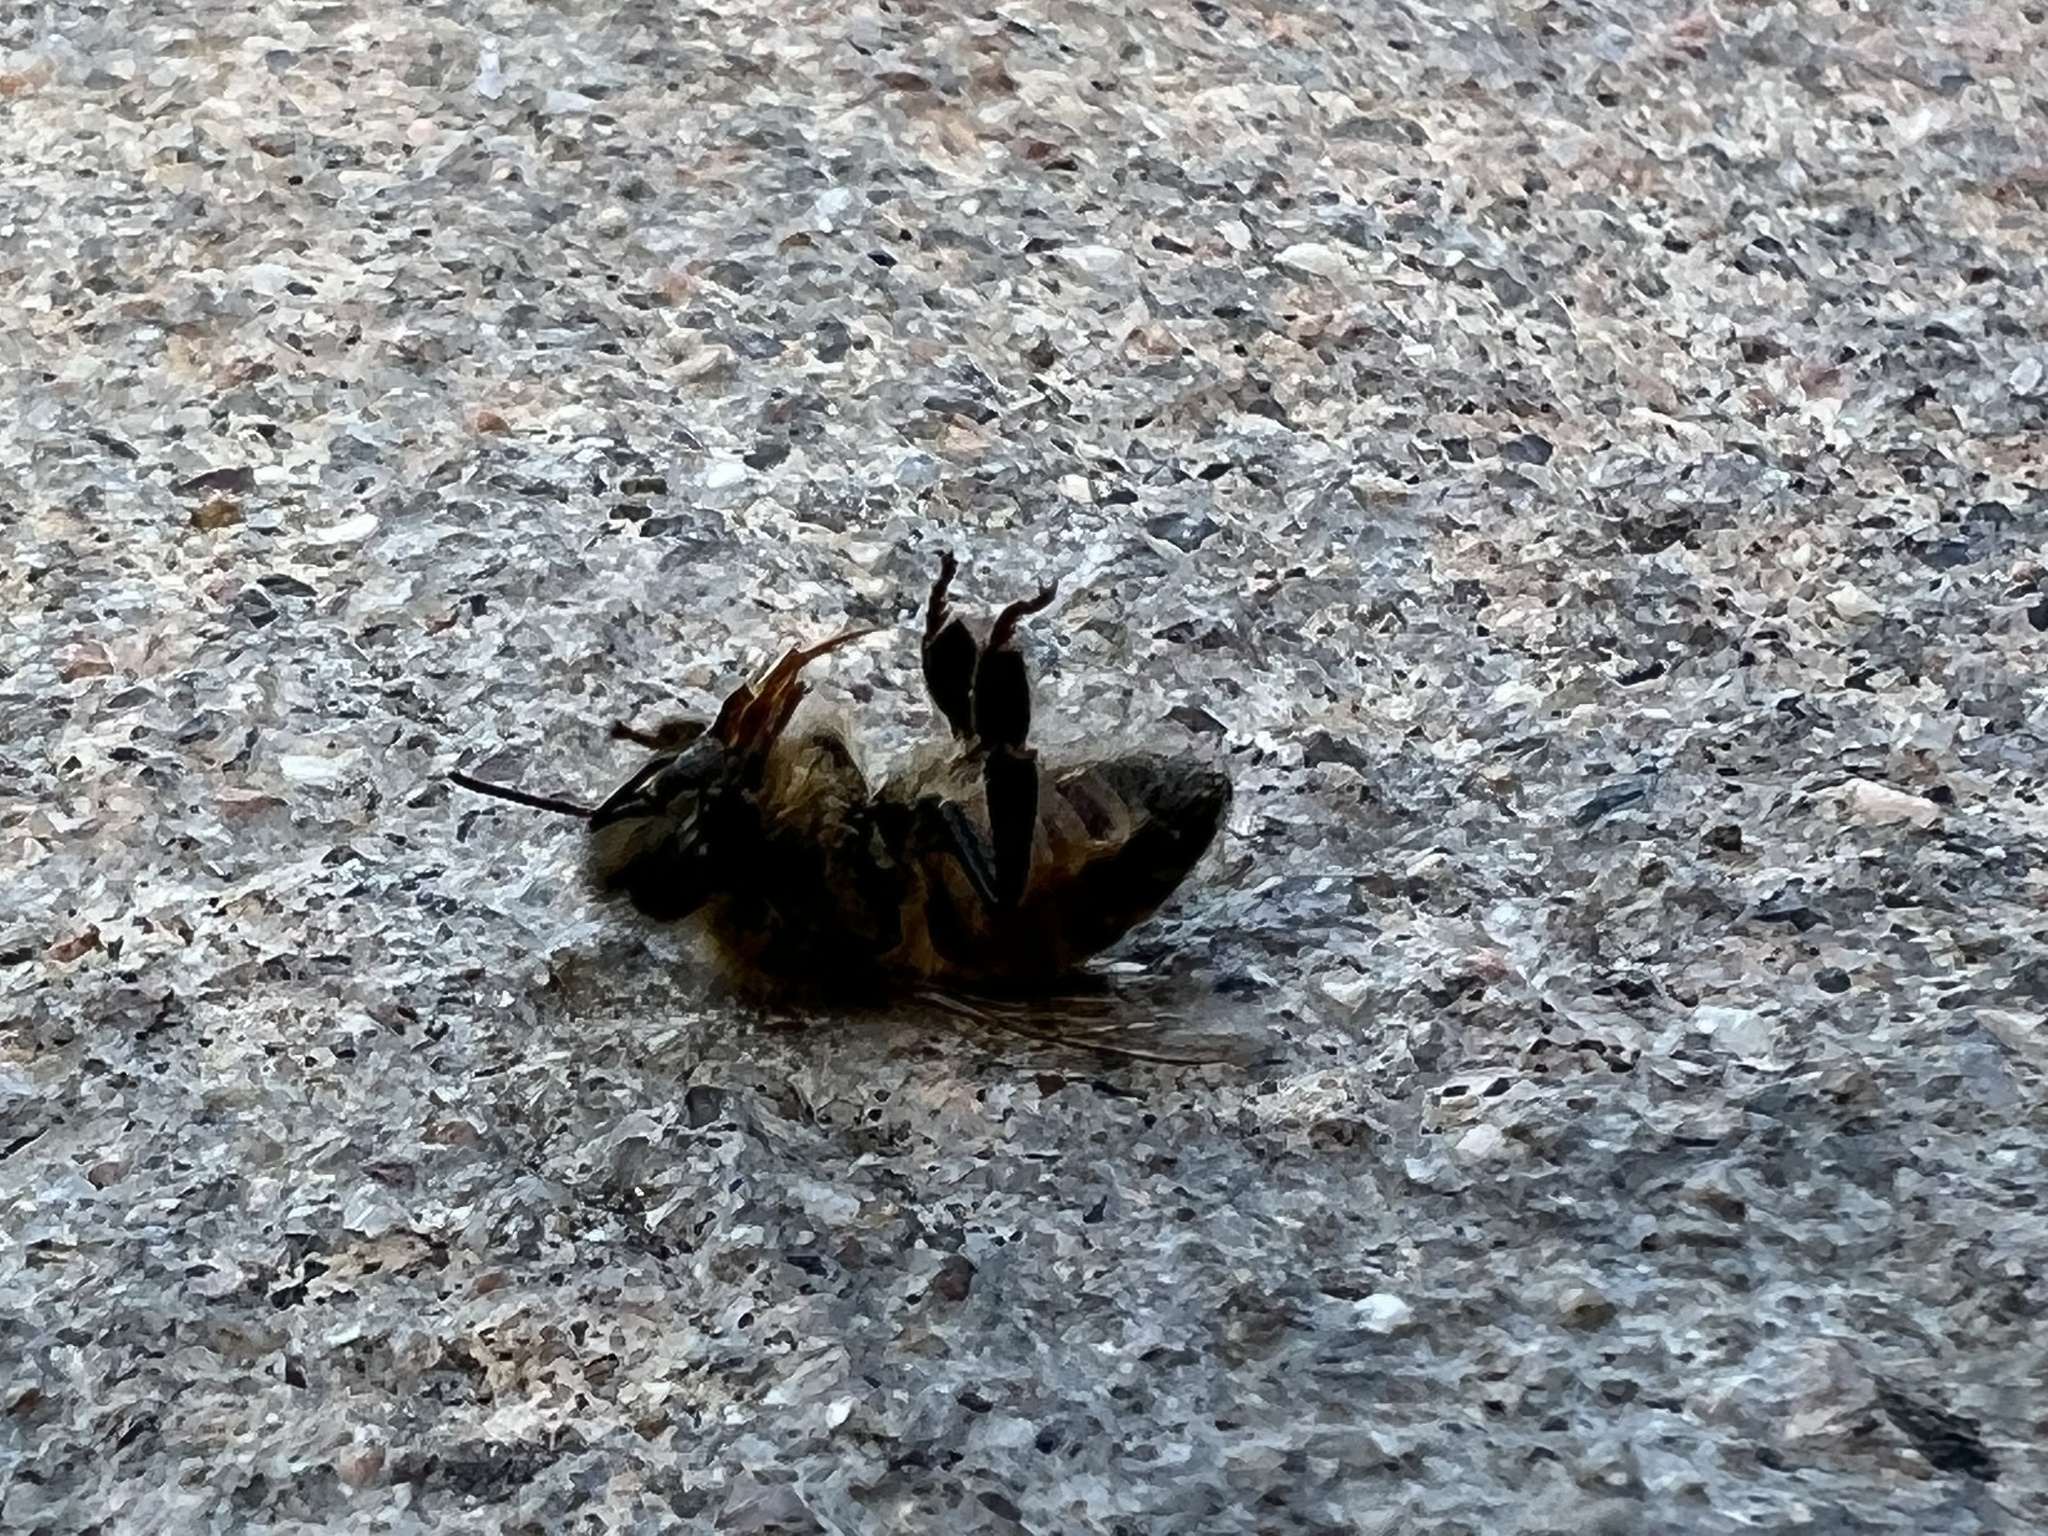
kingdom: Animalia
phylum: Arthropoda
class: Insecta
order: Hymenoptera
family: Apidae
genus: Apis
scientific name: Apis mellifera
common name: Honey bee
